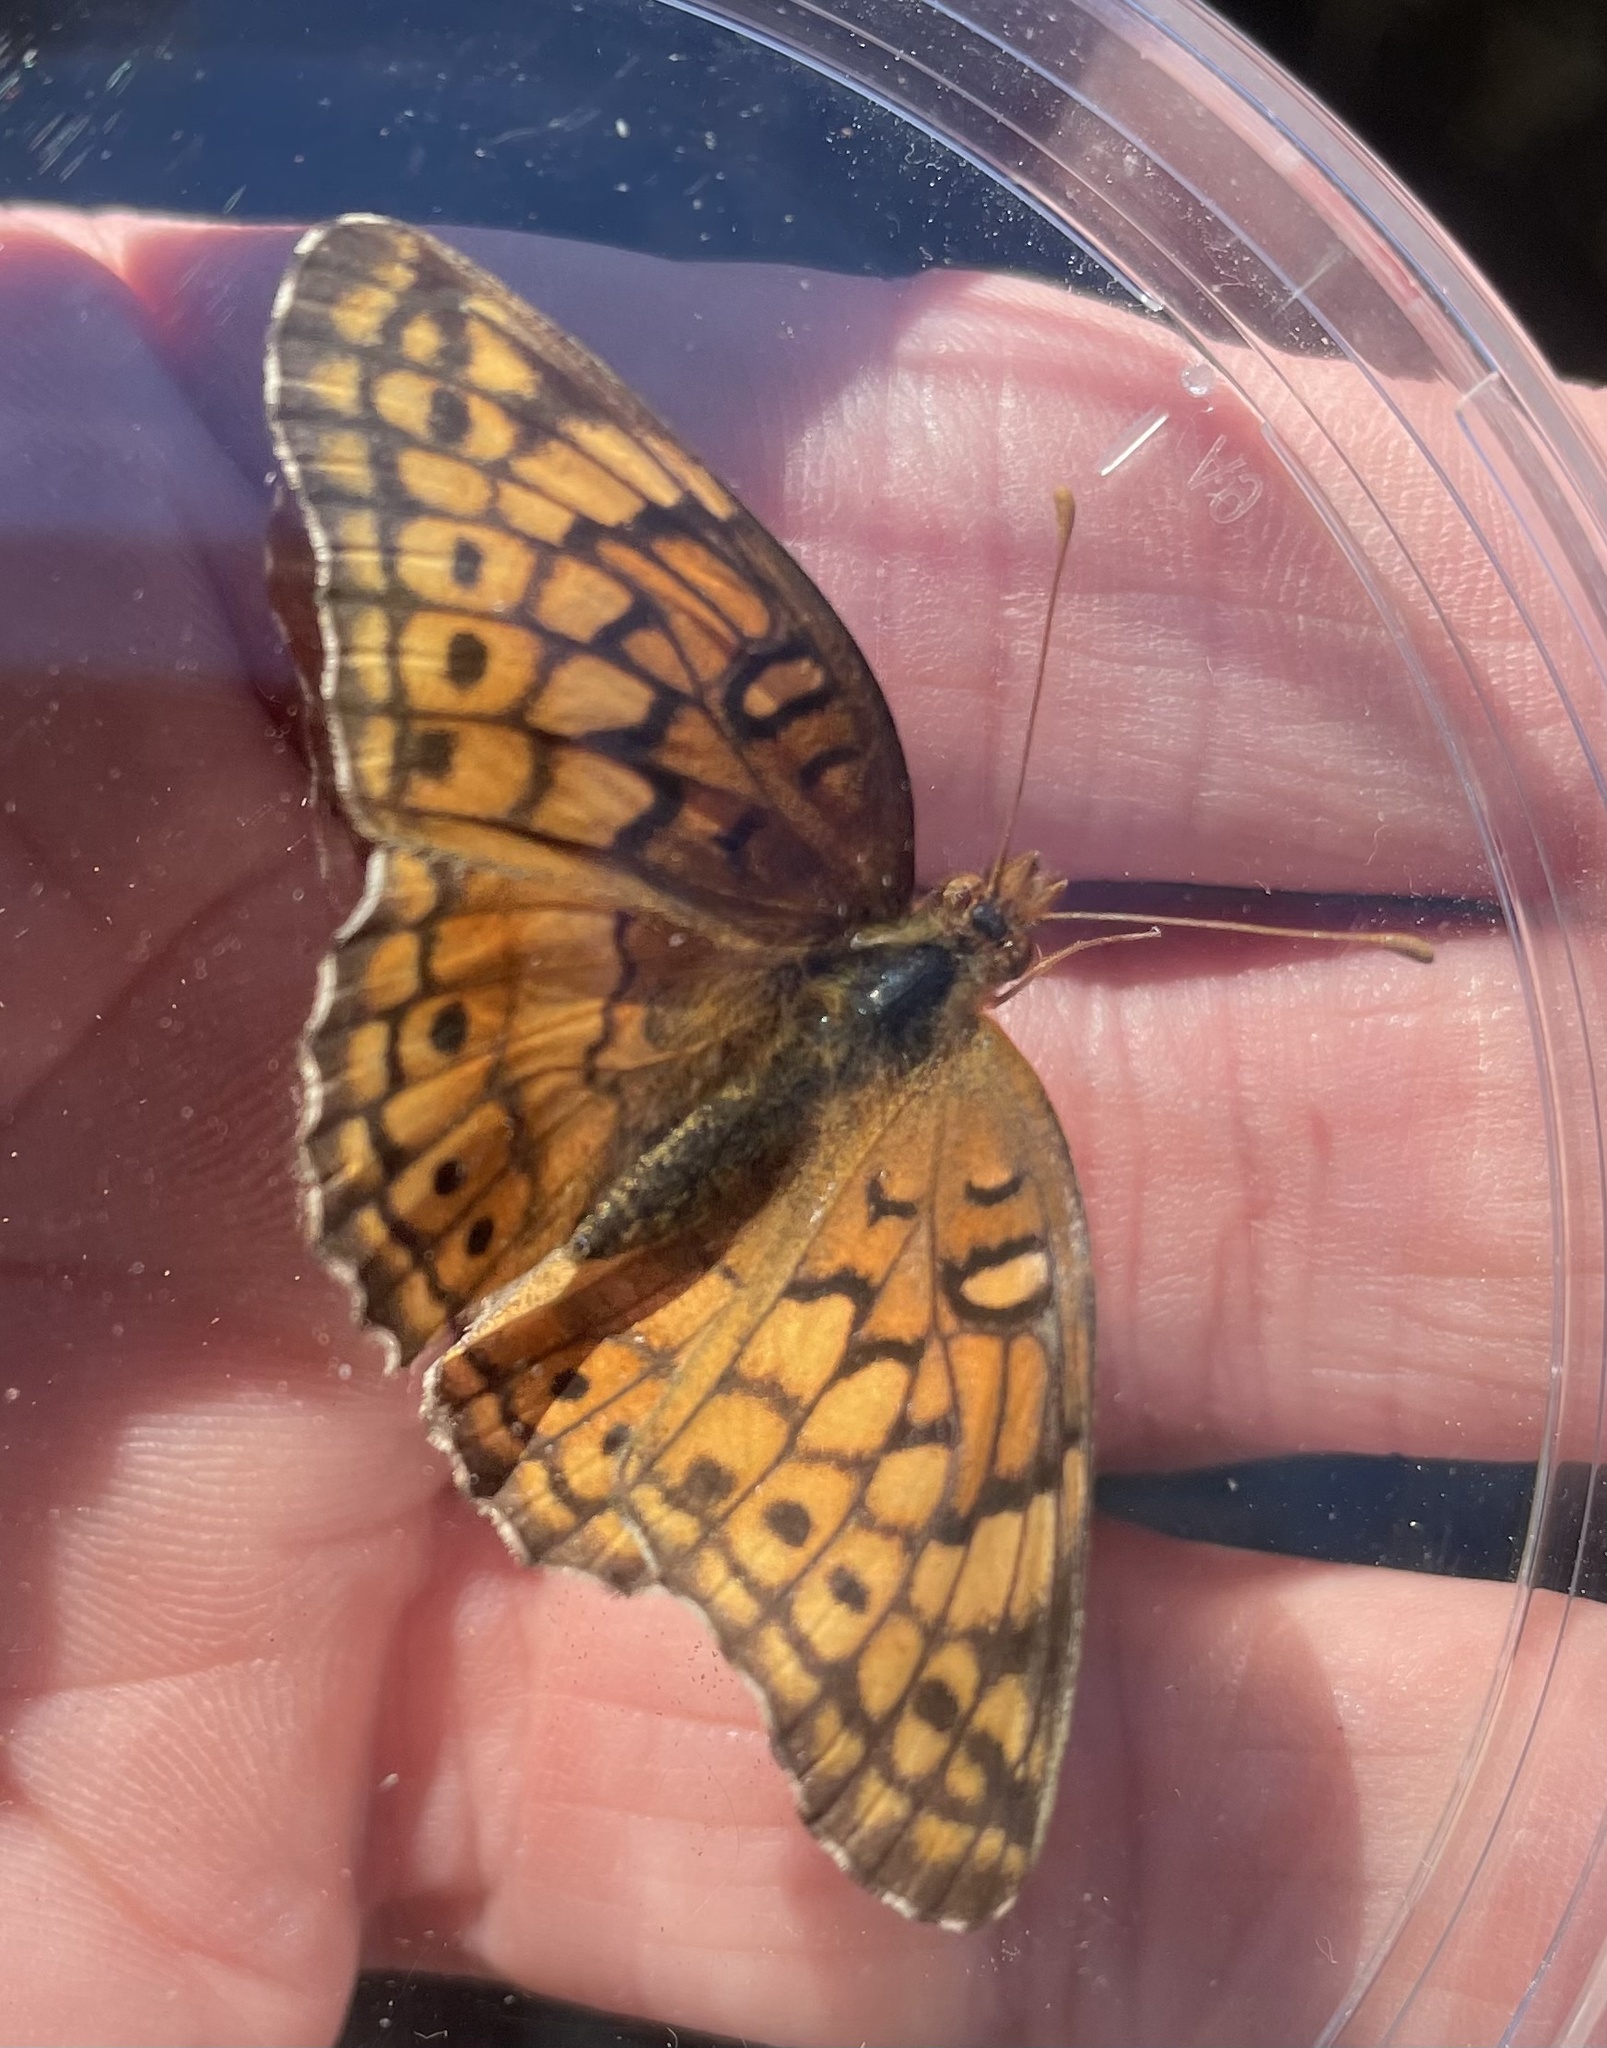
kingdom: Animalia
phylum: Arthropoda
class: Insecta
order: Lepidoptera
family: Nymphalidae
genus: Euptoieta
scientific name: Euptoieta claudia
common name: Variegated fritillary
